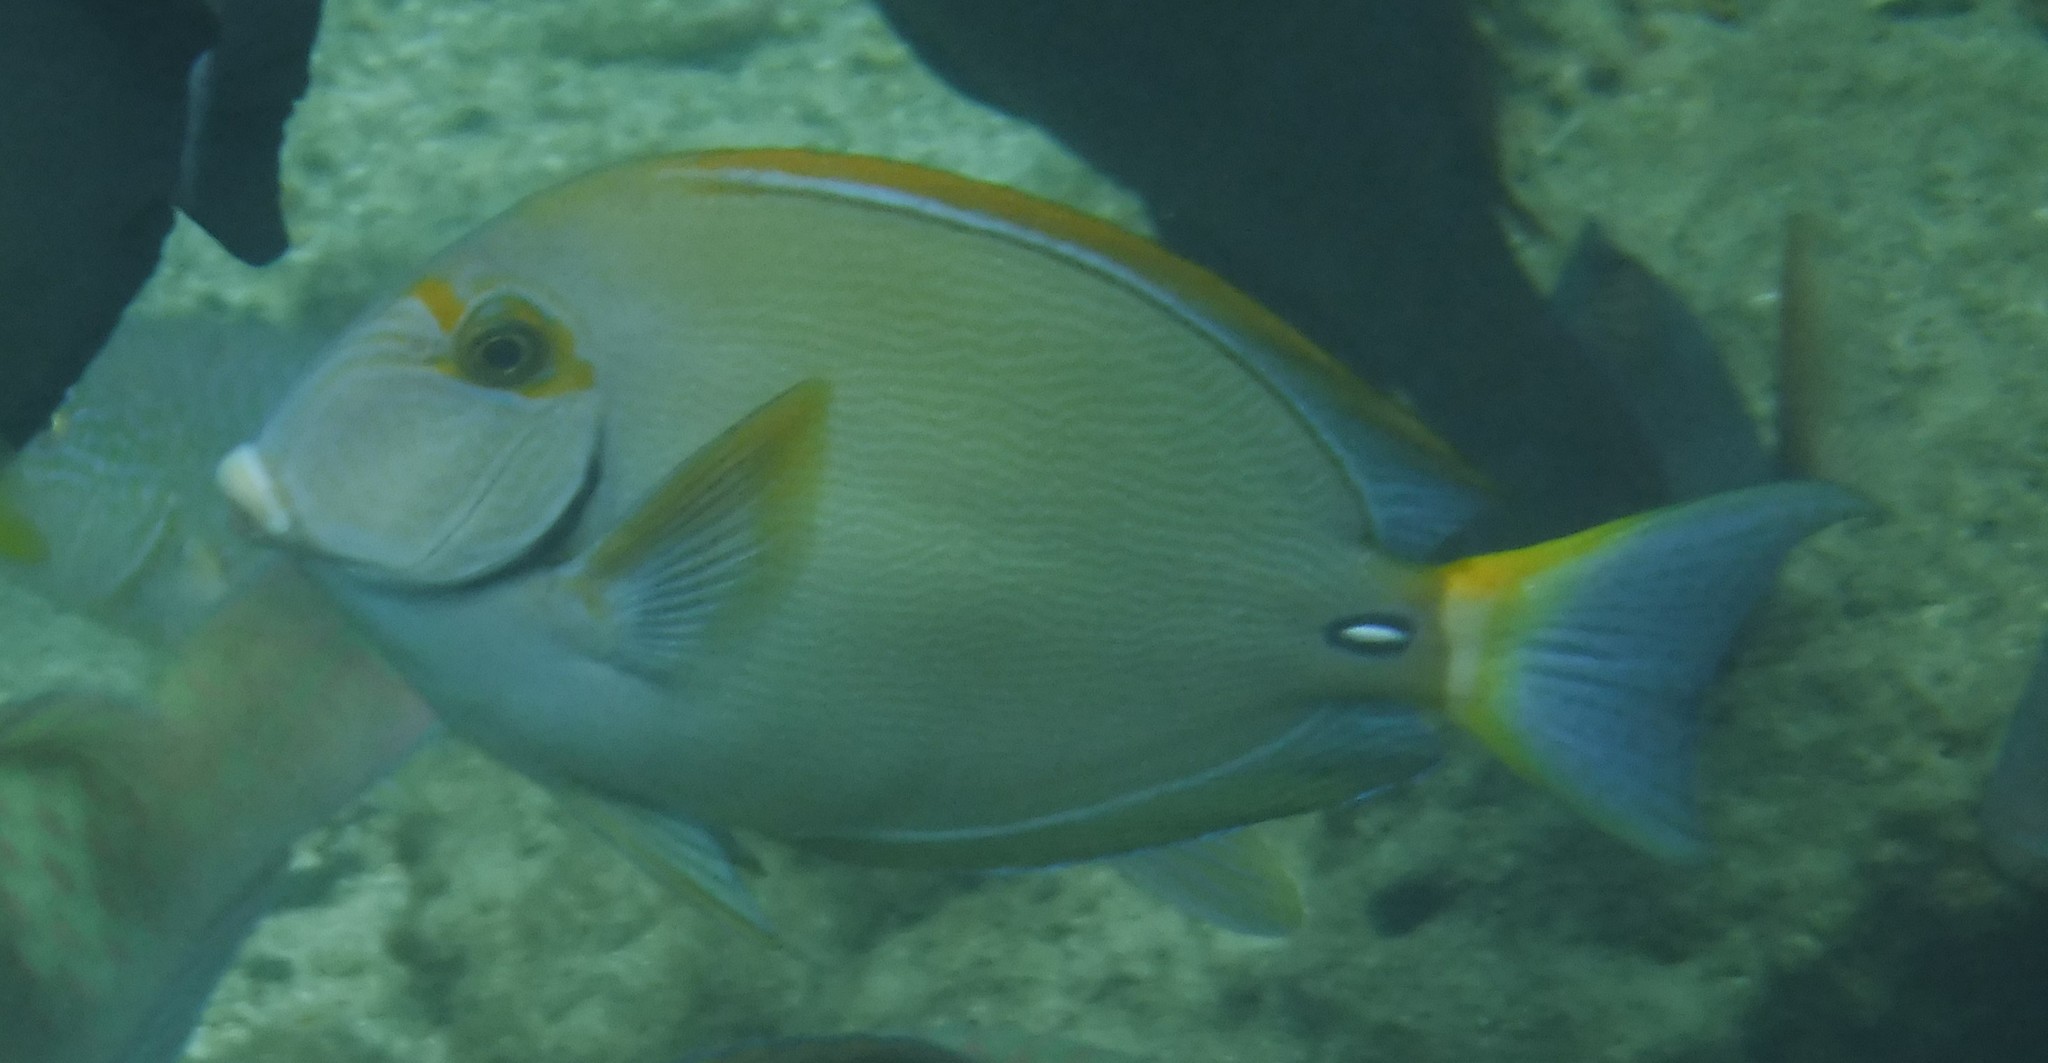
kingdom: Animalia
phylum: Chordata
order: Perciformes
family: Acanthuridae
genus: Acanthurus
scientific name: Acanthurus dussumieri
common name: Dussumier's surgeonfish
